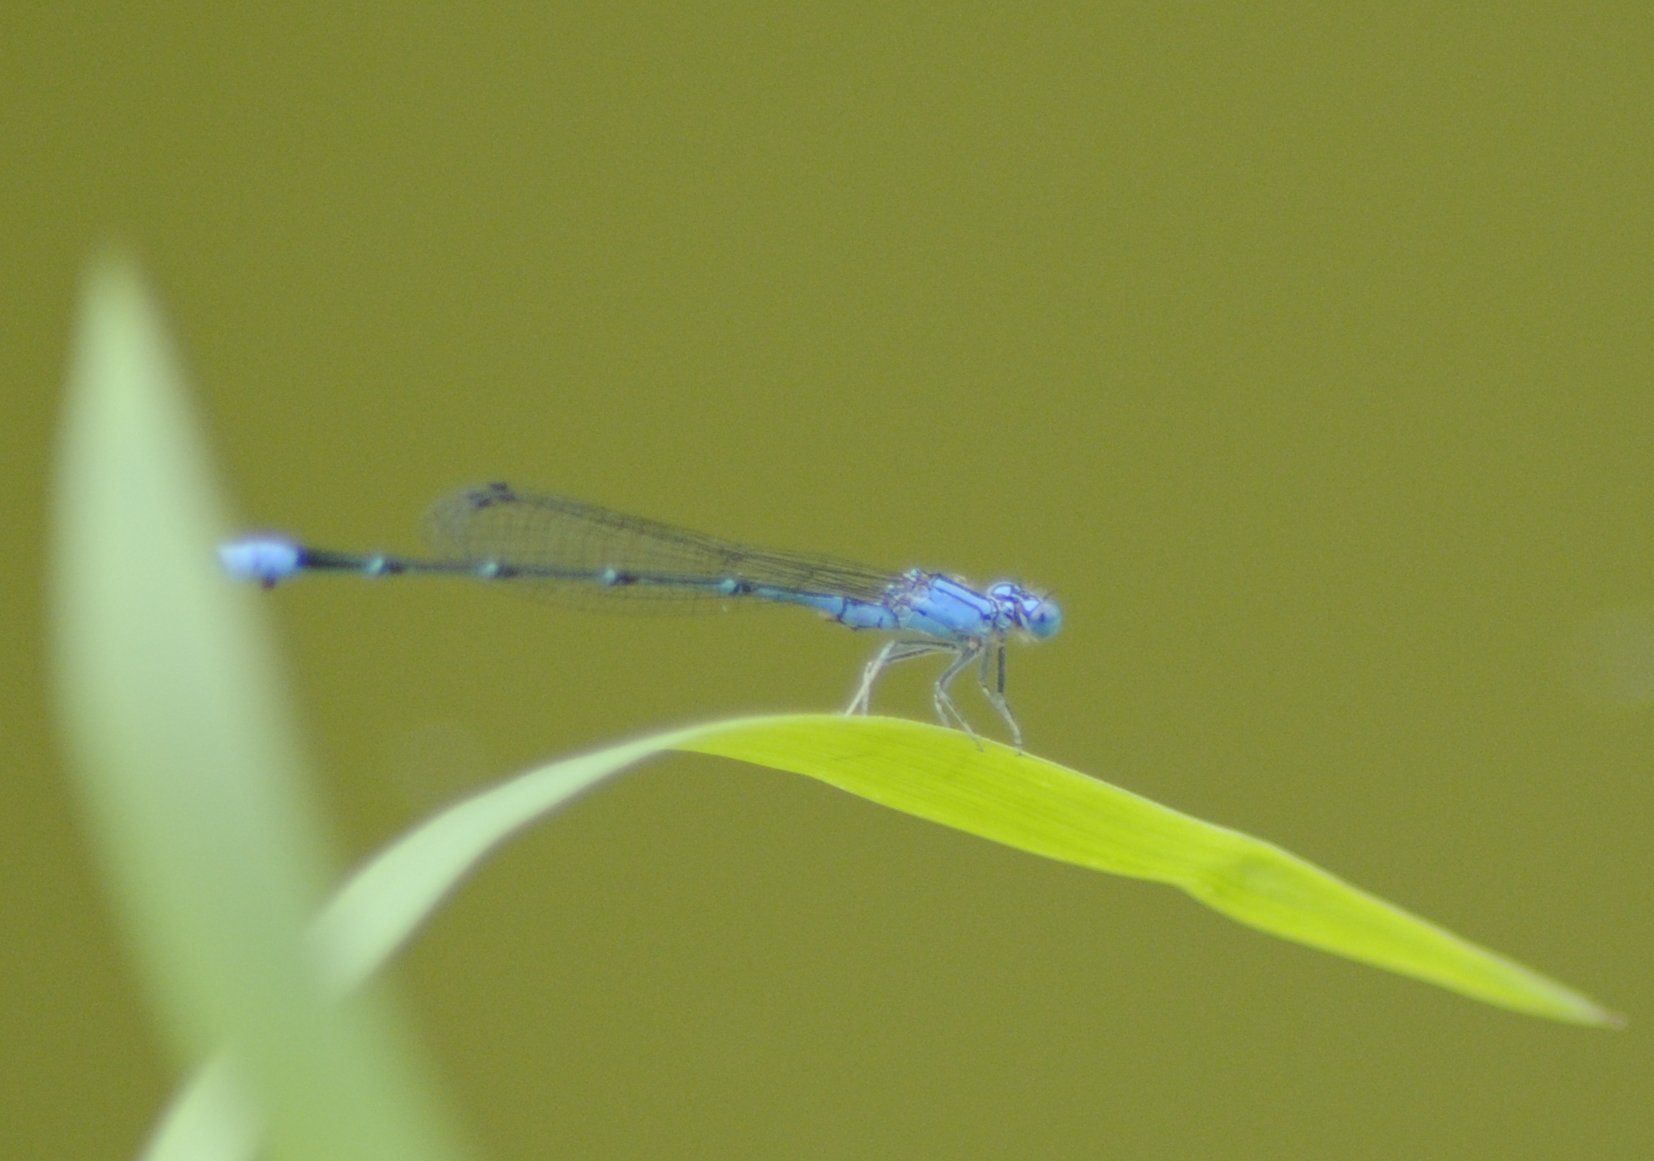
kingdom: Animalia
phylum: Arthropoda
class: Insecta
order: Odonata
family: Coenagrionidae
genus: Enallagma
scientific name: Enallagma traviatum
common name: Slender bluet
